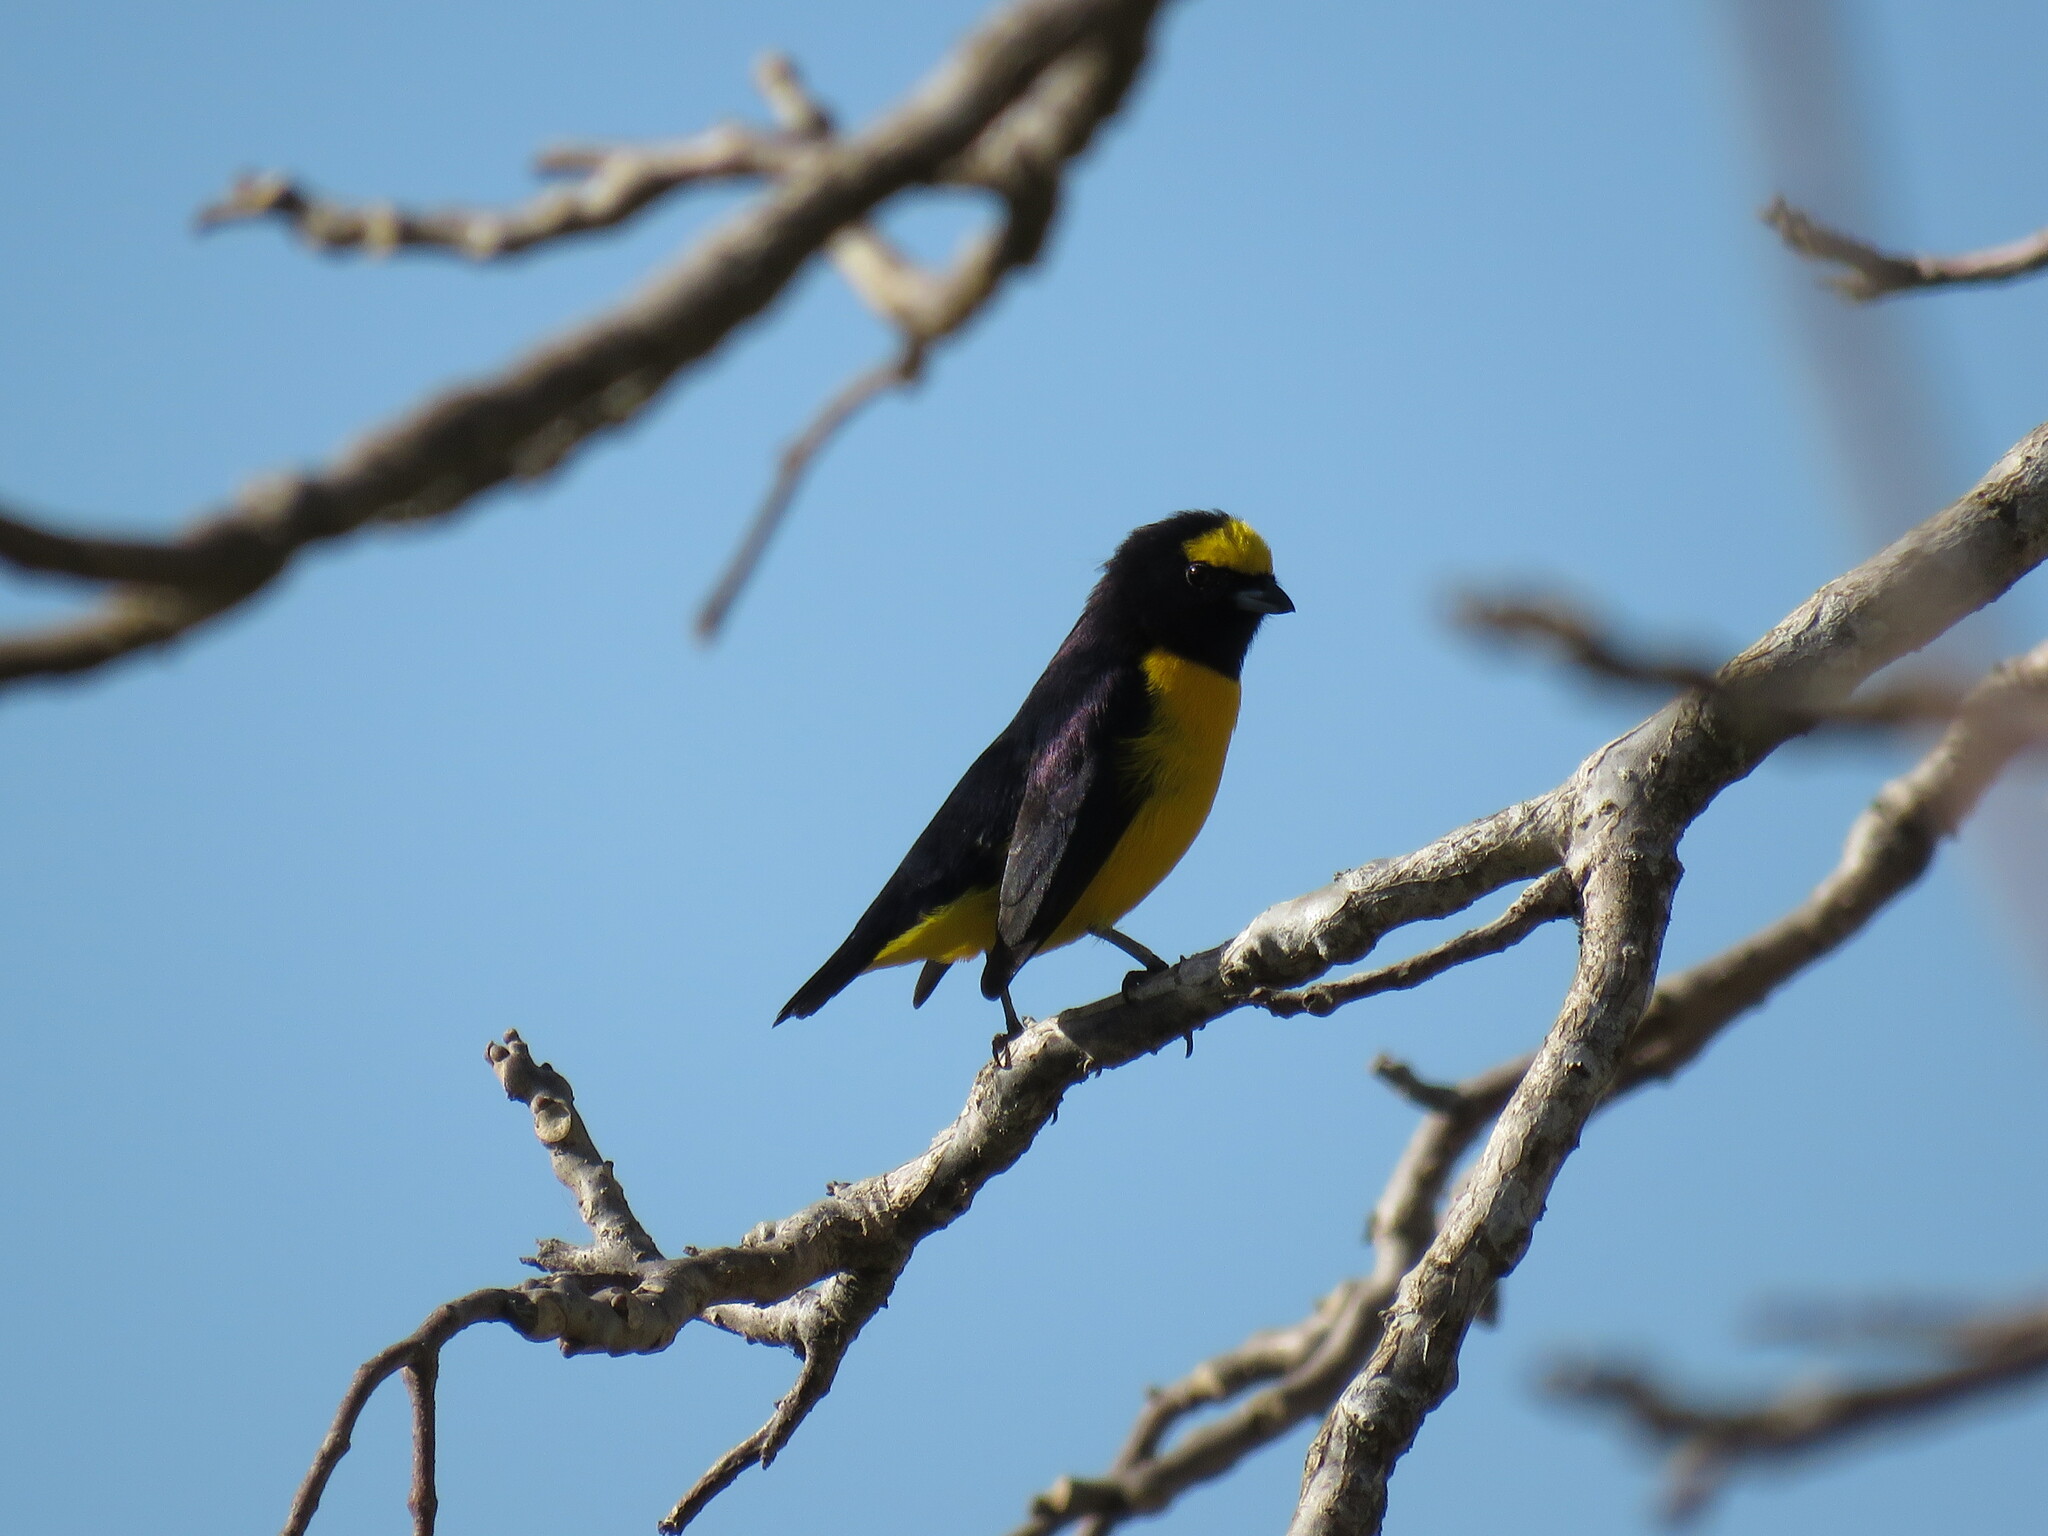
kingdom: Animalia
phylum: Chordata
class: Aves
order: Passeriformes
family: Fringillidae
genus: Euphonia
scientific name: Euphonia affinis
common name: Scrub euphonia
